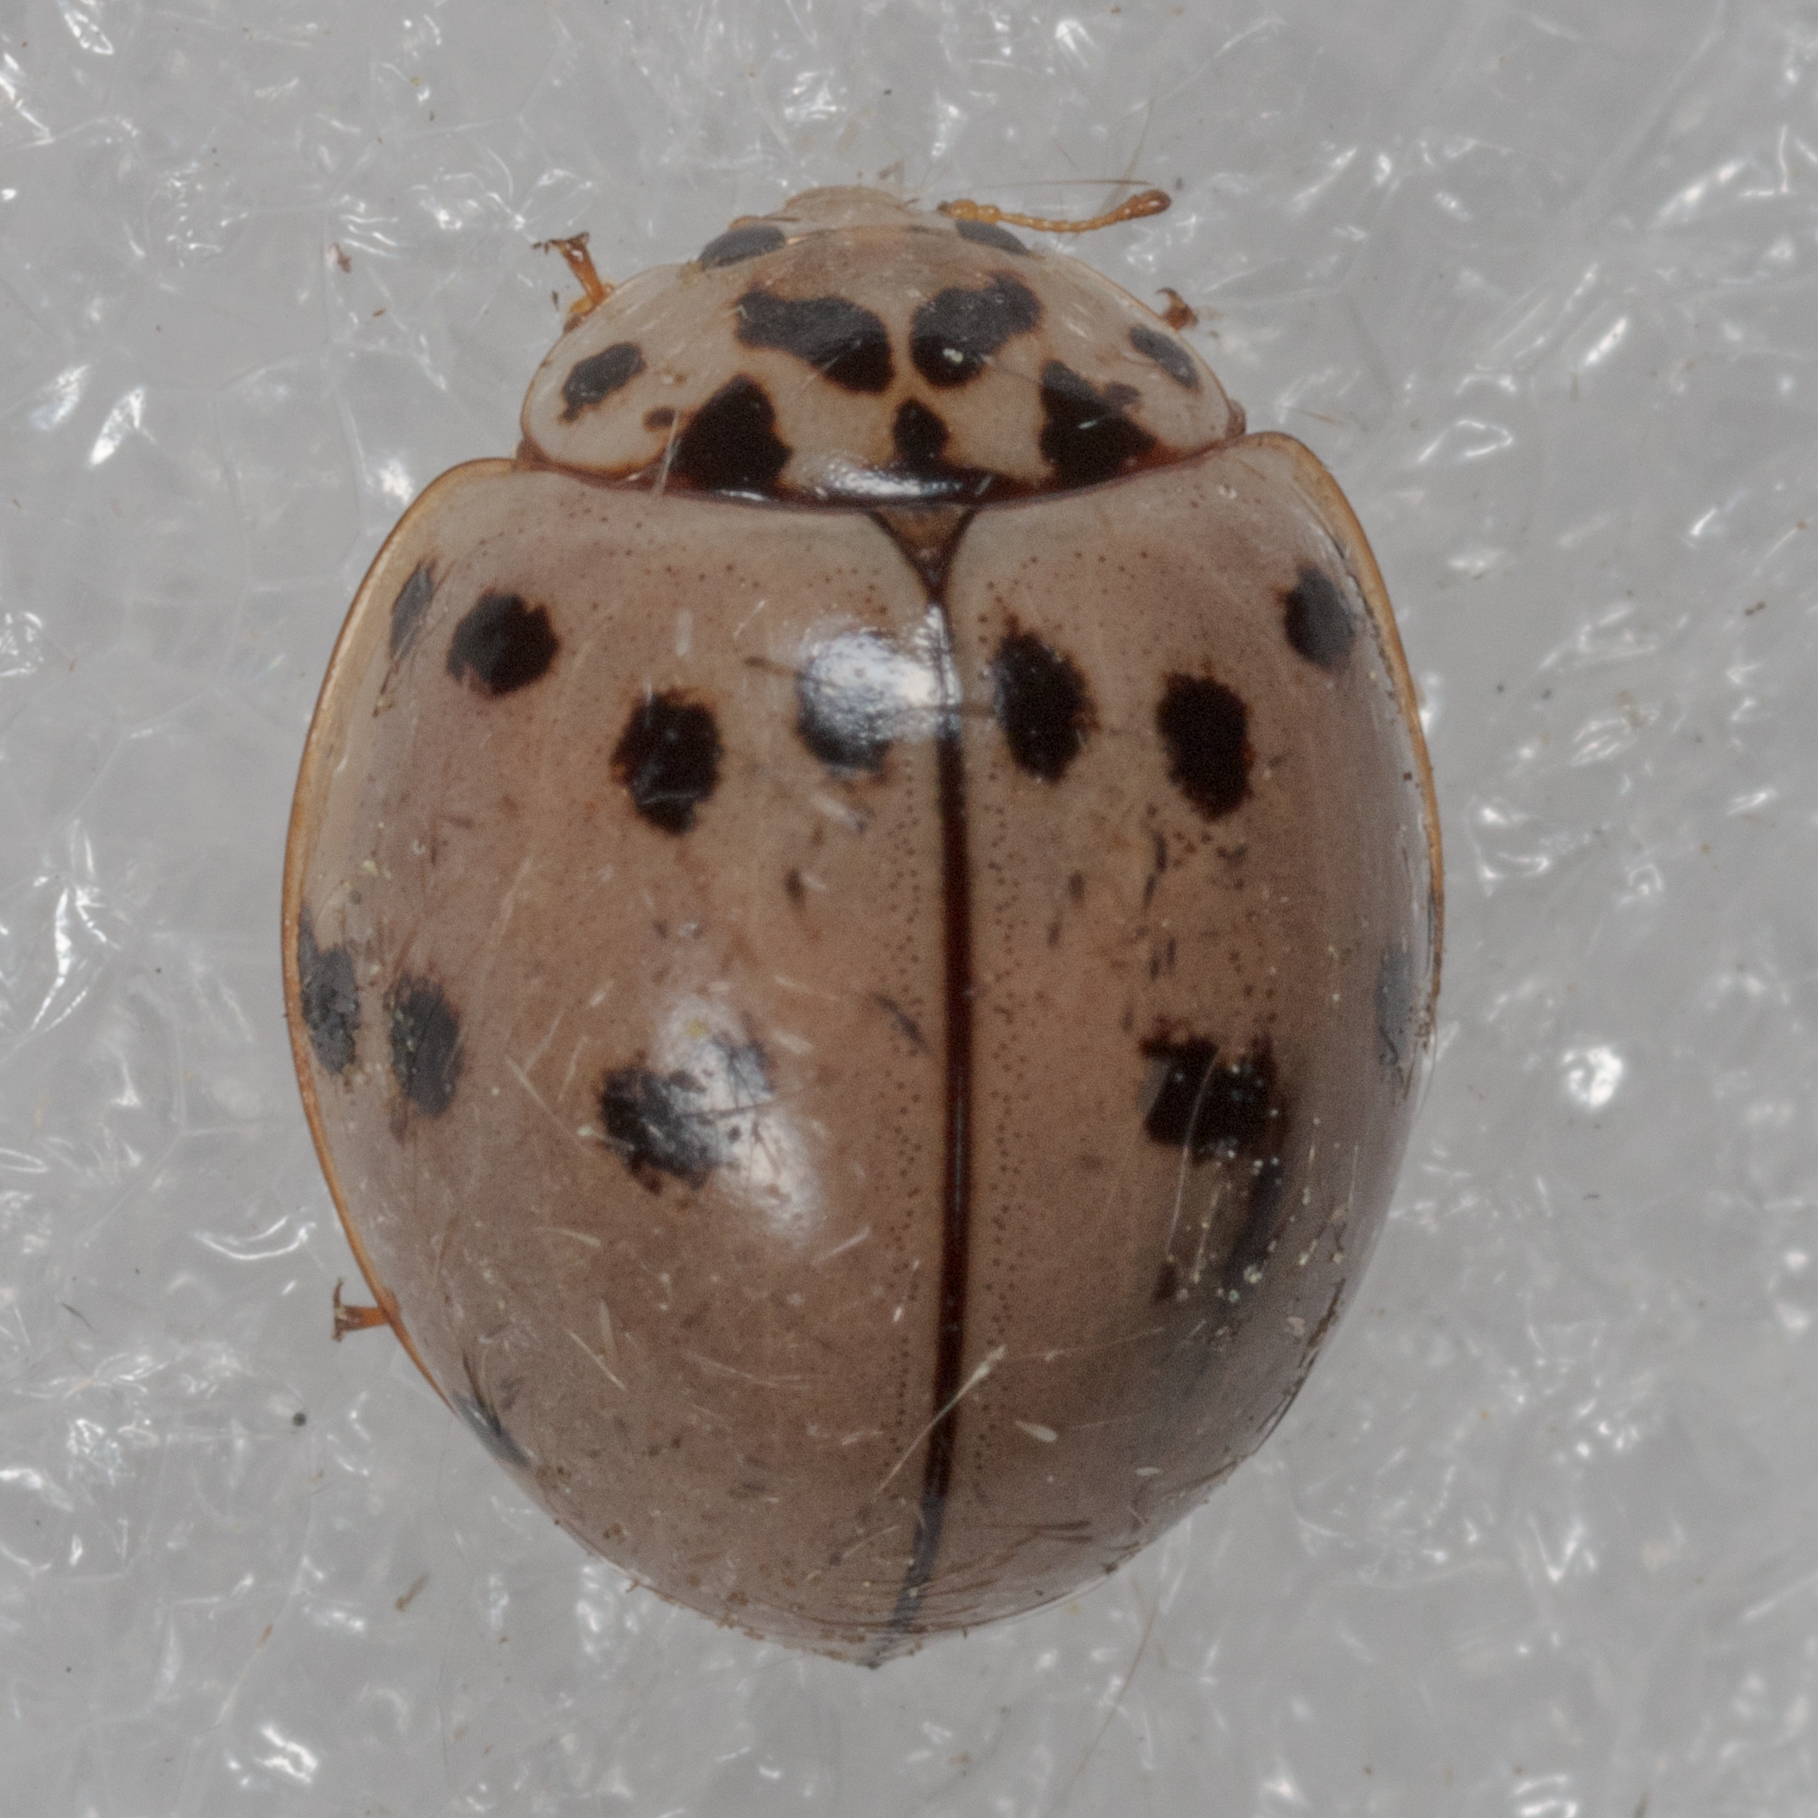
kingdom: Animalia
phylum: Arthropoda
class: Insecta
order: Coleoptera
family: Coccinellidae
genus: Olla
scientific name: Olla v-nigrum
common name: Ashy gray lady beetle
